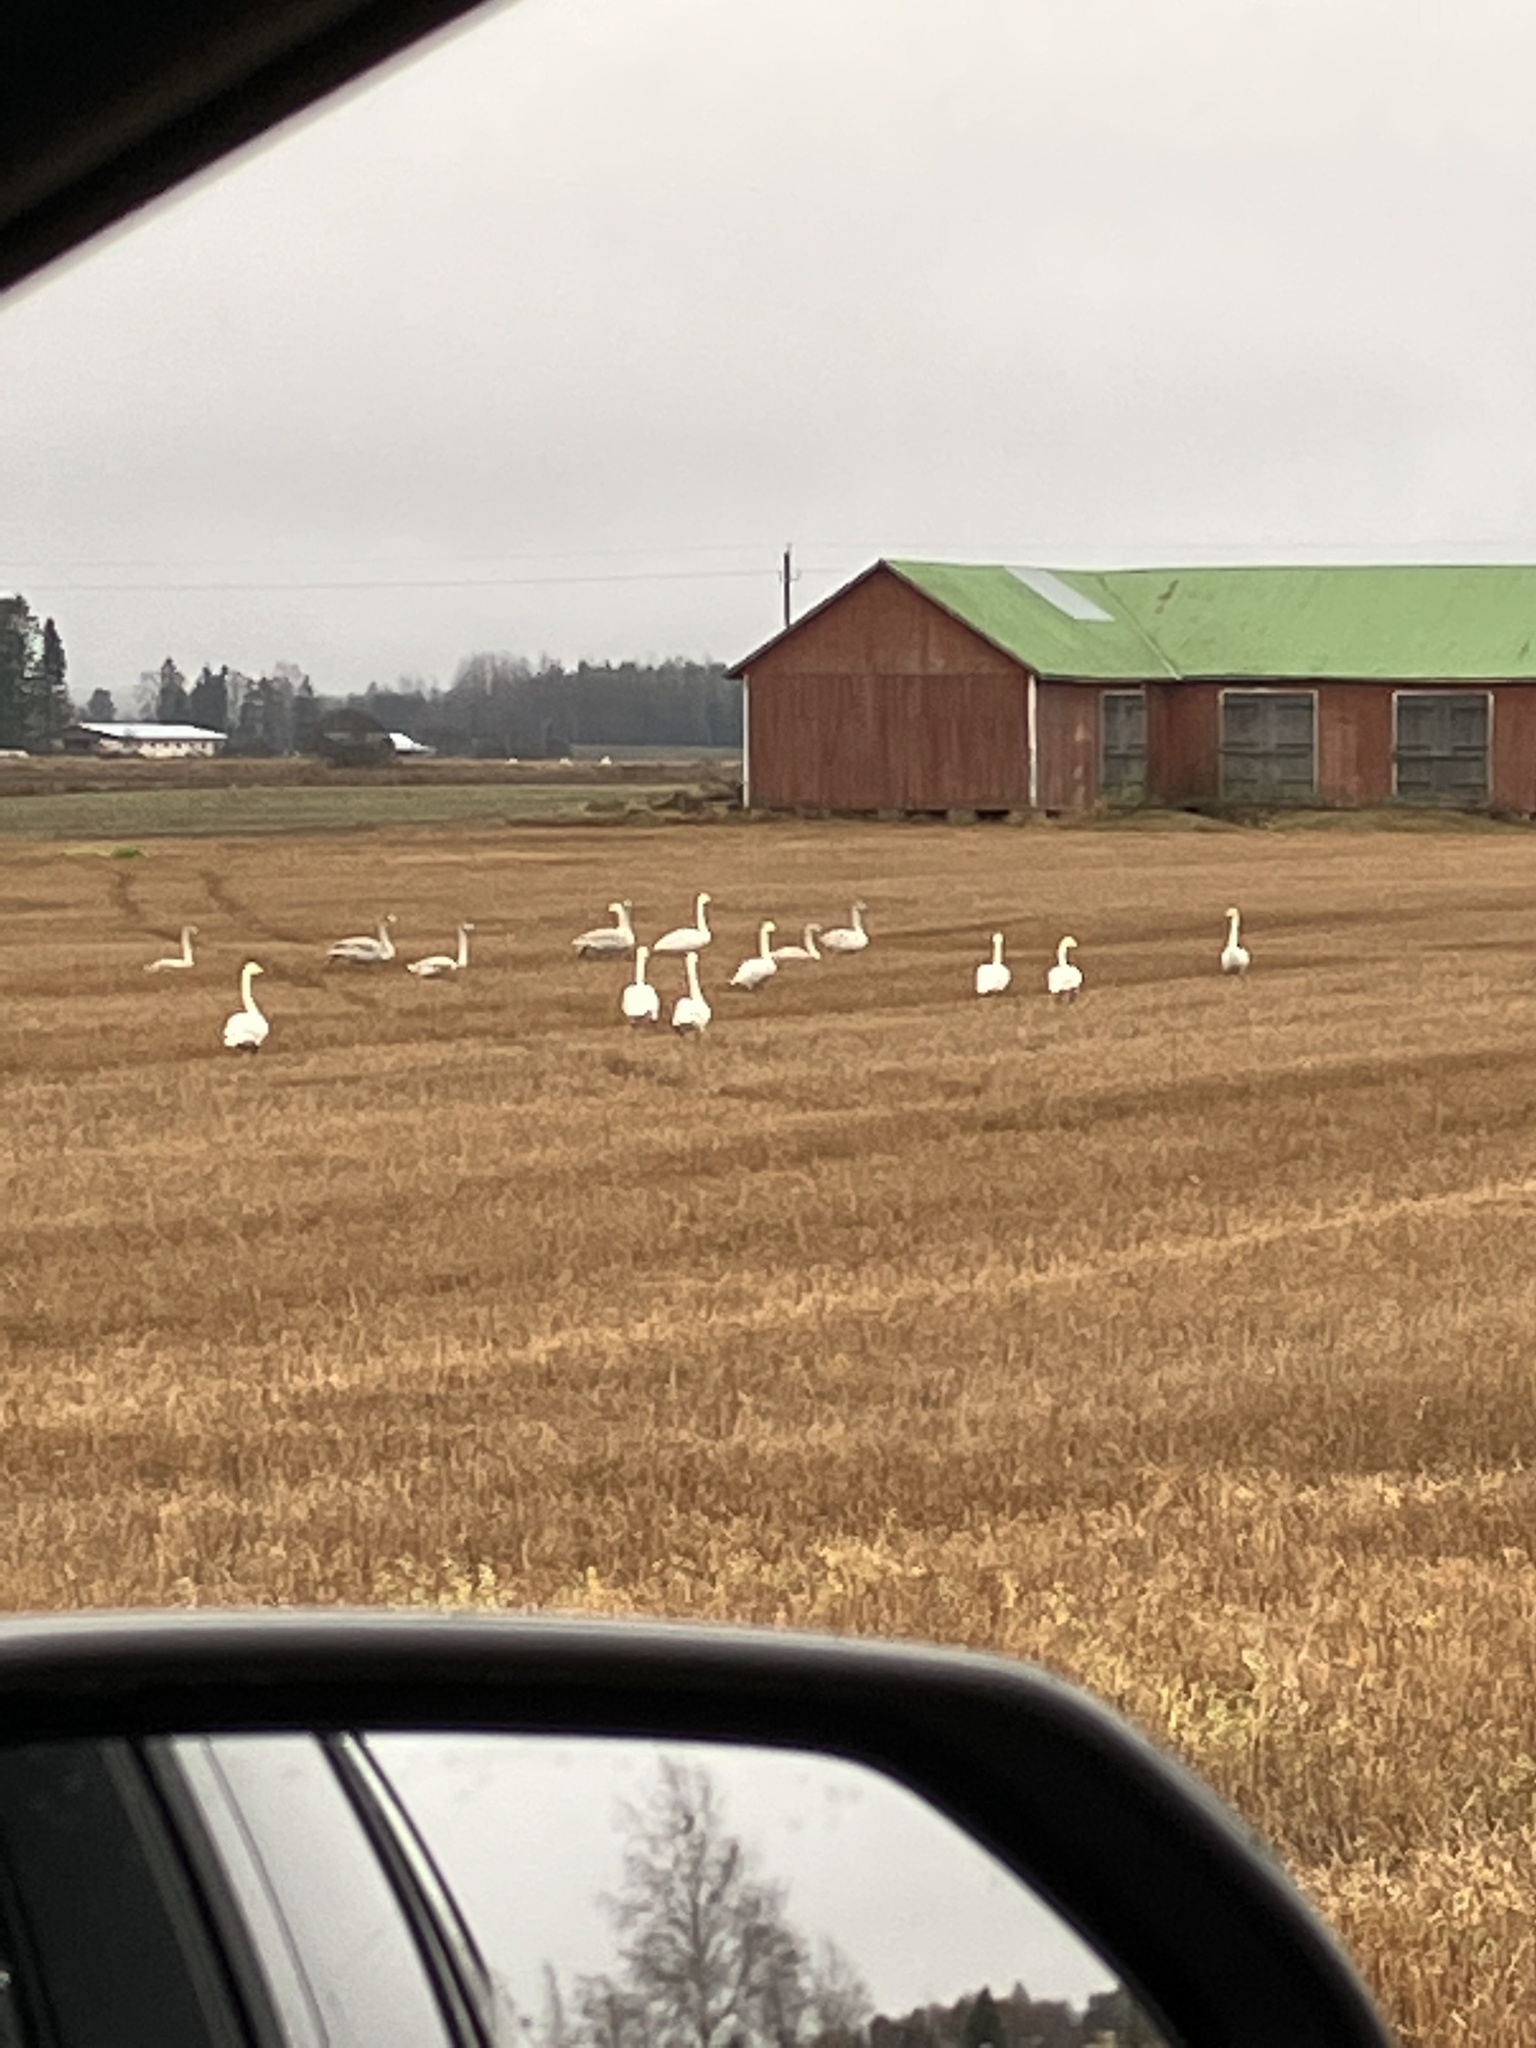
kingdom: Animalia
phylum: Chordata
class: Aves
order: Anseriformes
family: Anatidae
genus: Cygnus
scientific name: Cygnus cygnus
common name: Whooper swan
